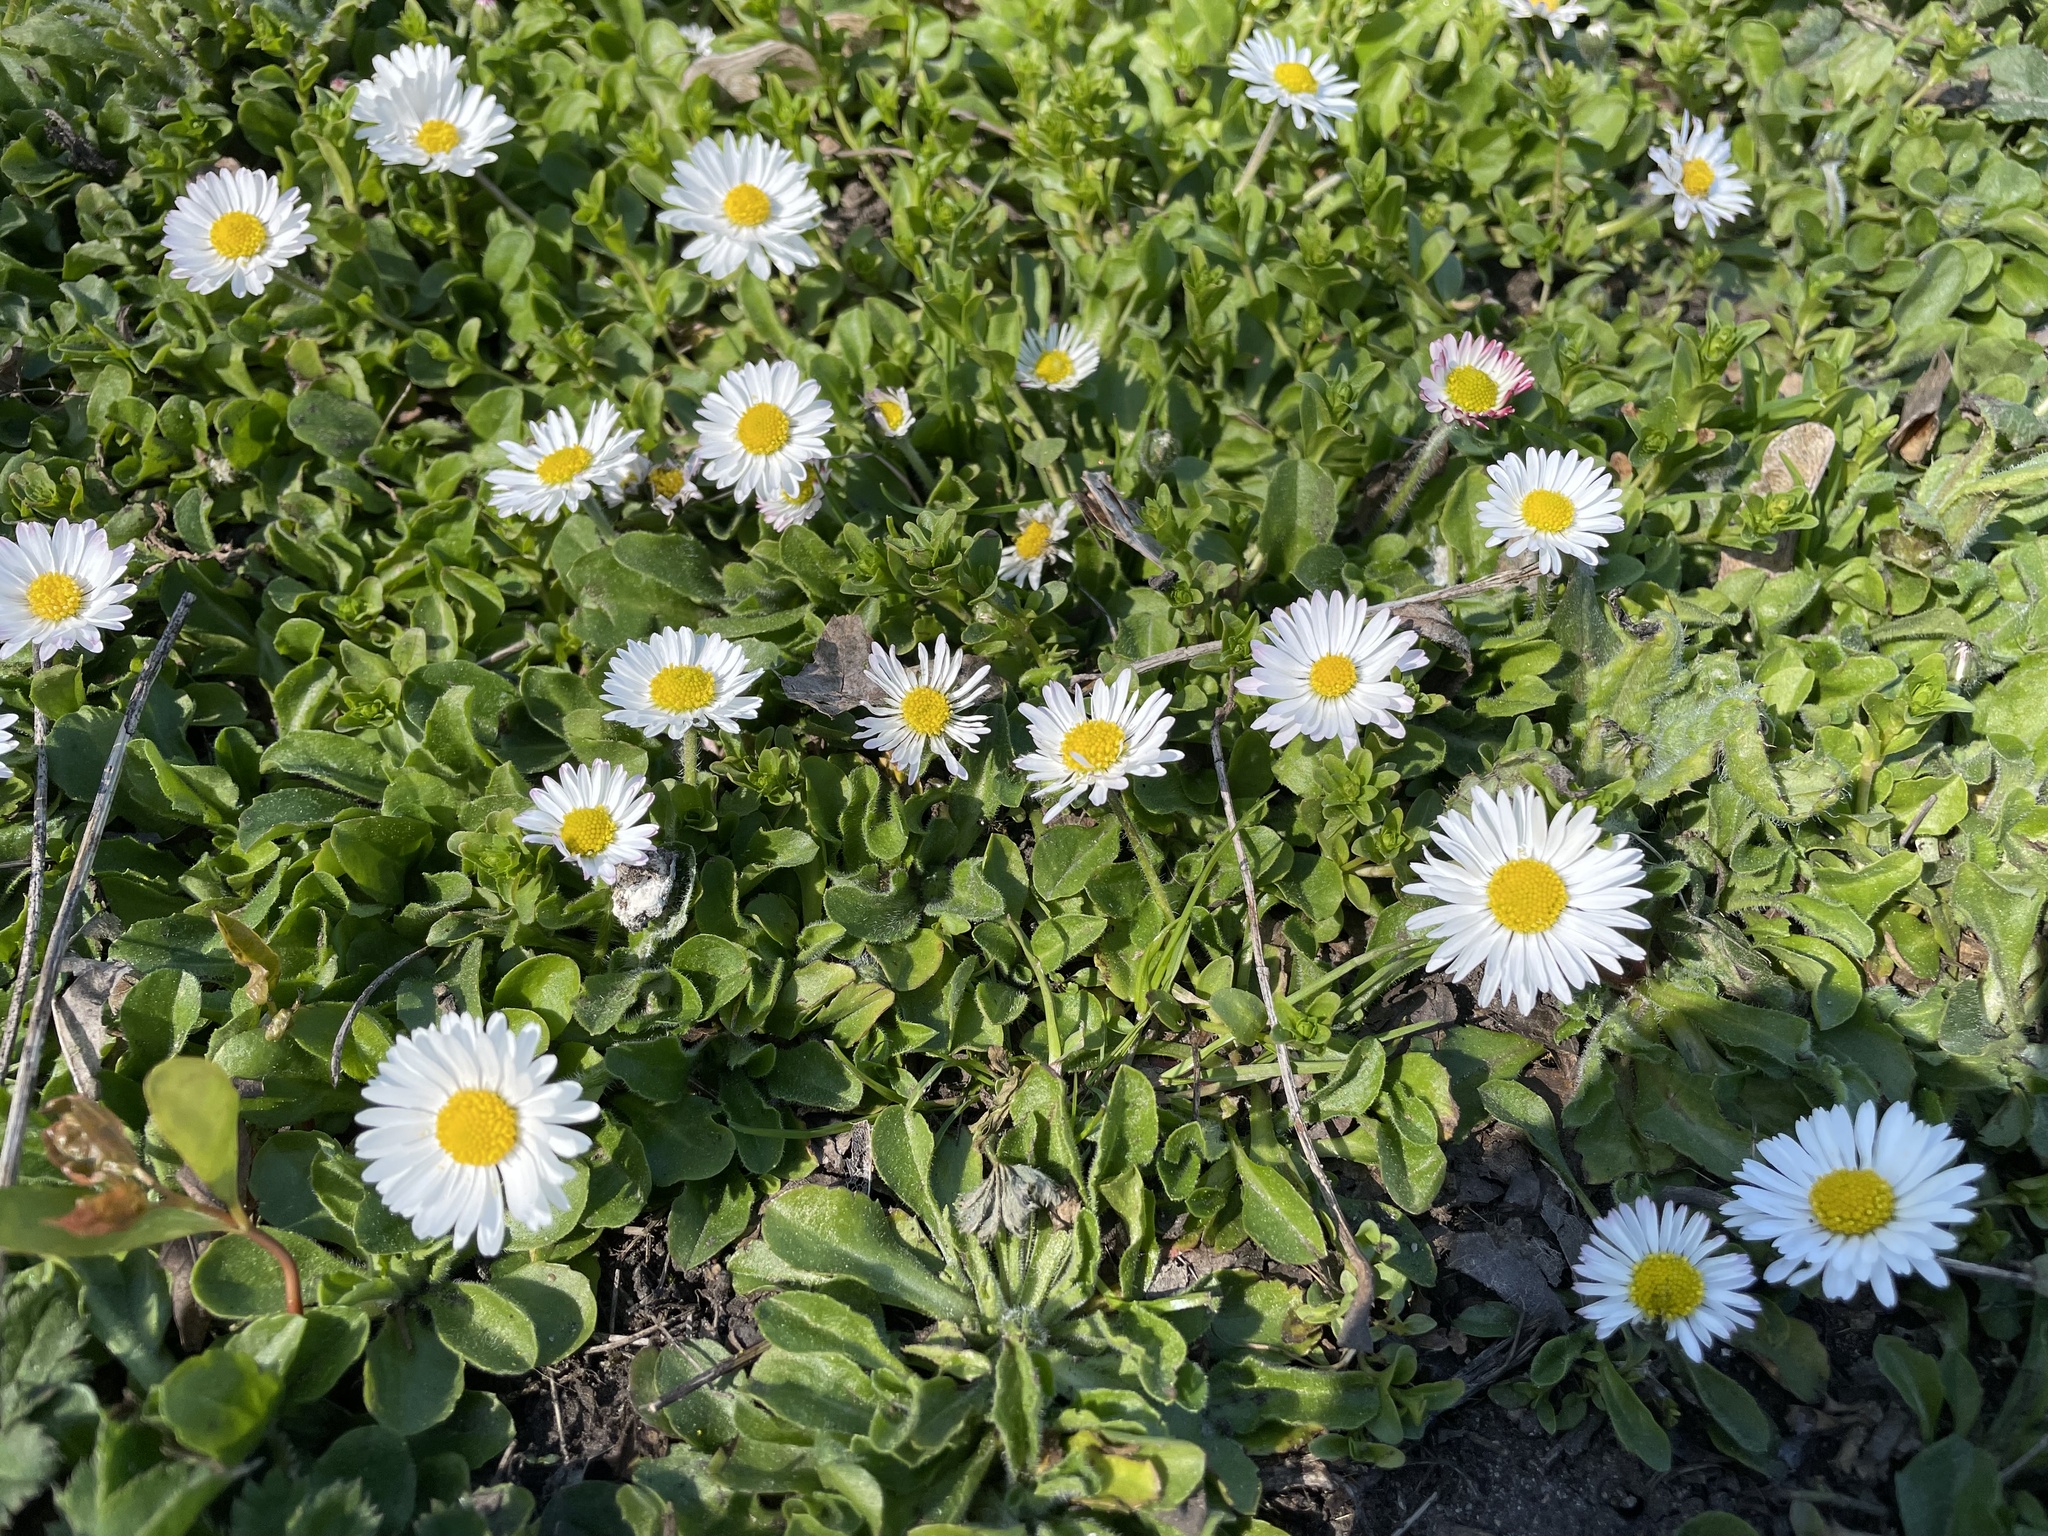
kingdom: Plantae
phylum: Tracheophyta
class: Magnoliopsida
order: Asterales
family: Asteraceae
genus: Bellis
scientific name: Bellis perennis
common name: Lawndaisy
